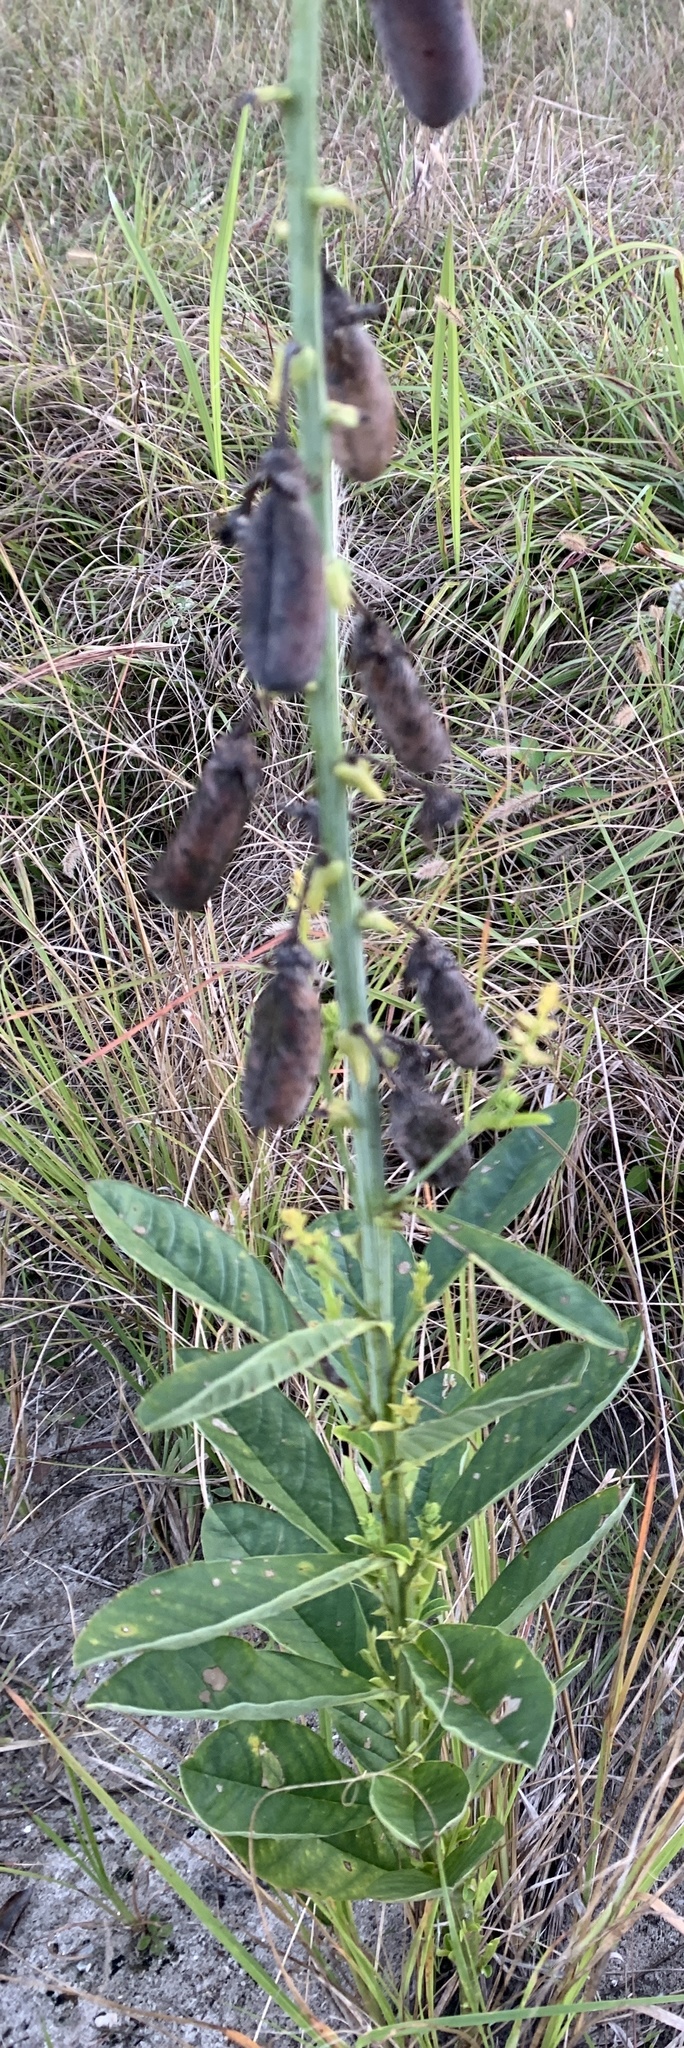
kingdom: Plantae
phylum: Tracheophyta
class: Magnoliopsida
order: Fabales
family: Fabaceae
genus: Crotalaria
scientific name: Crotalaria spectabilis
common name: Showy rattlebox
